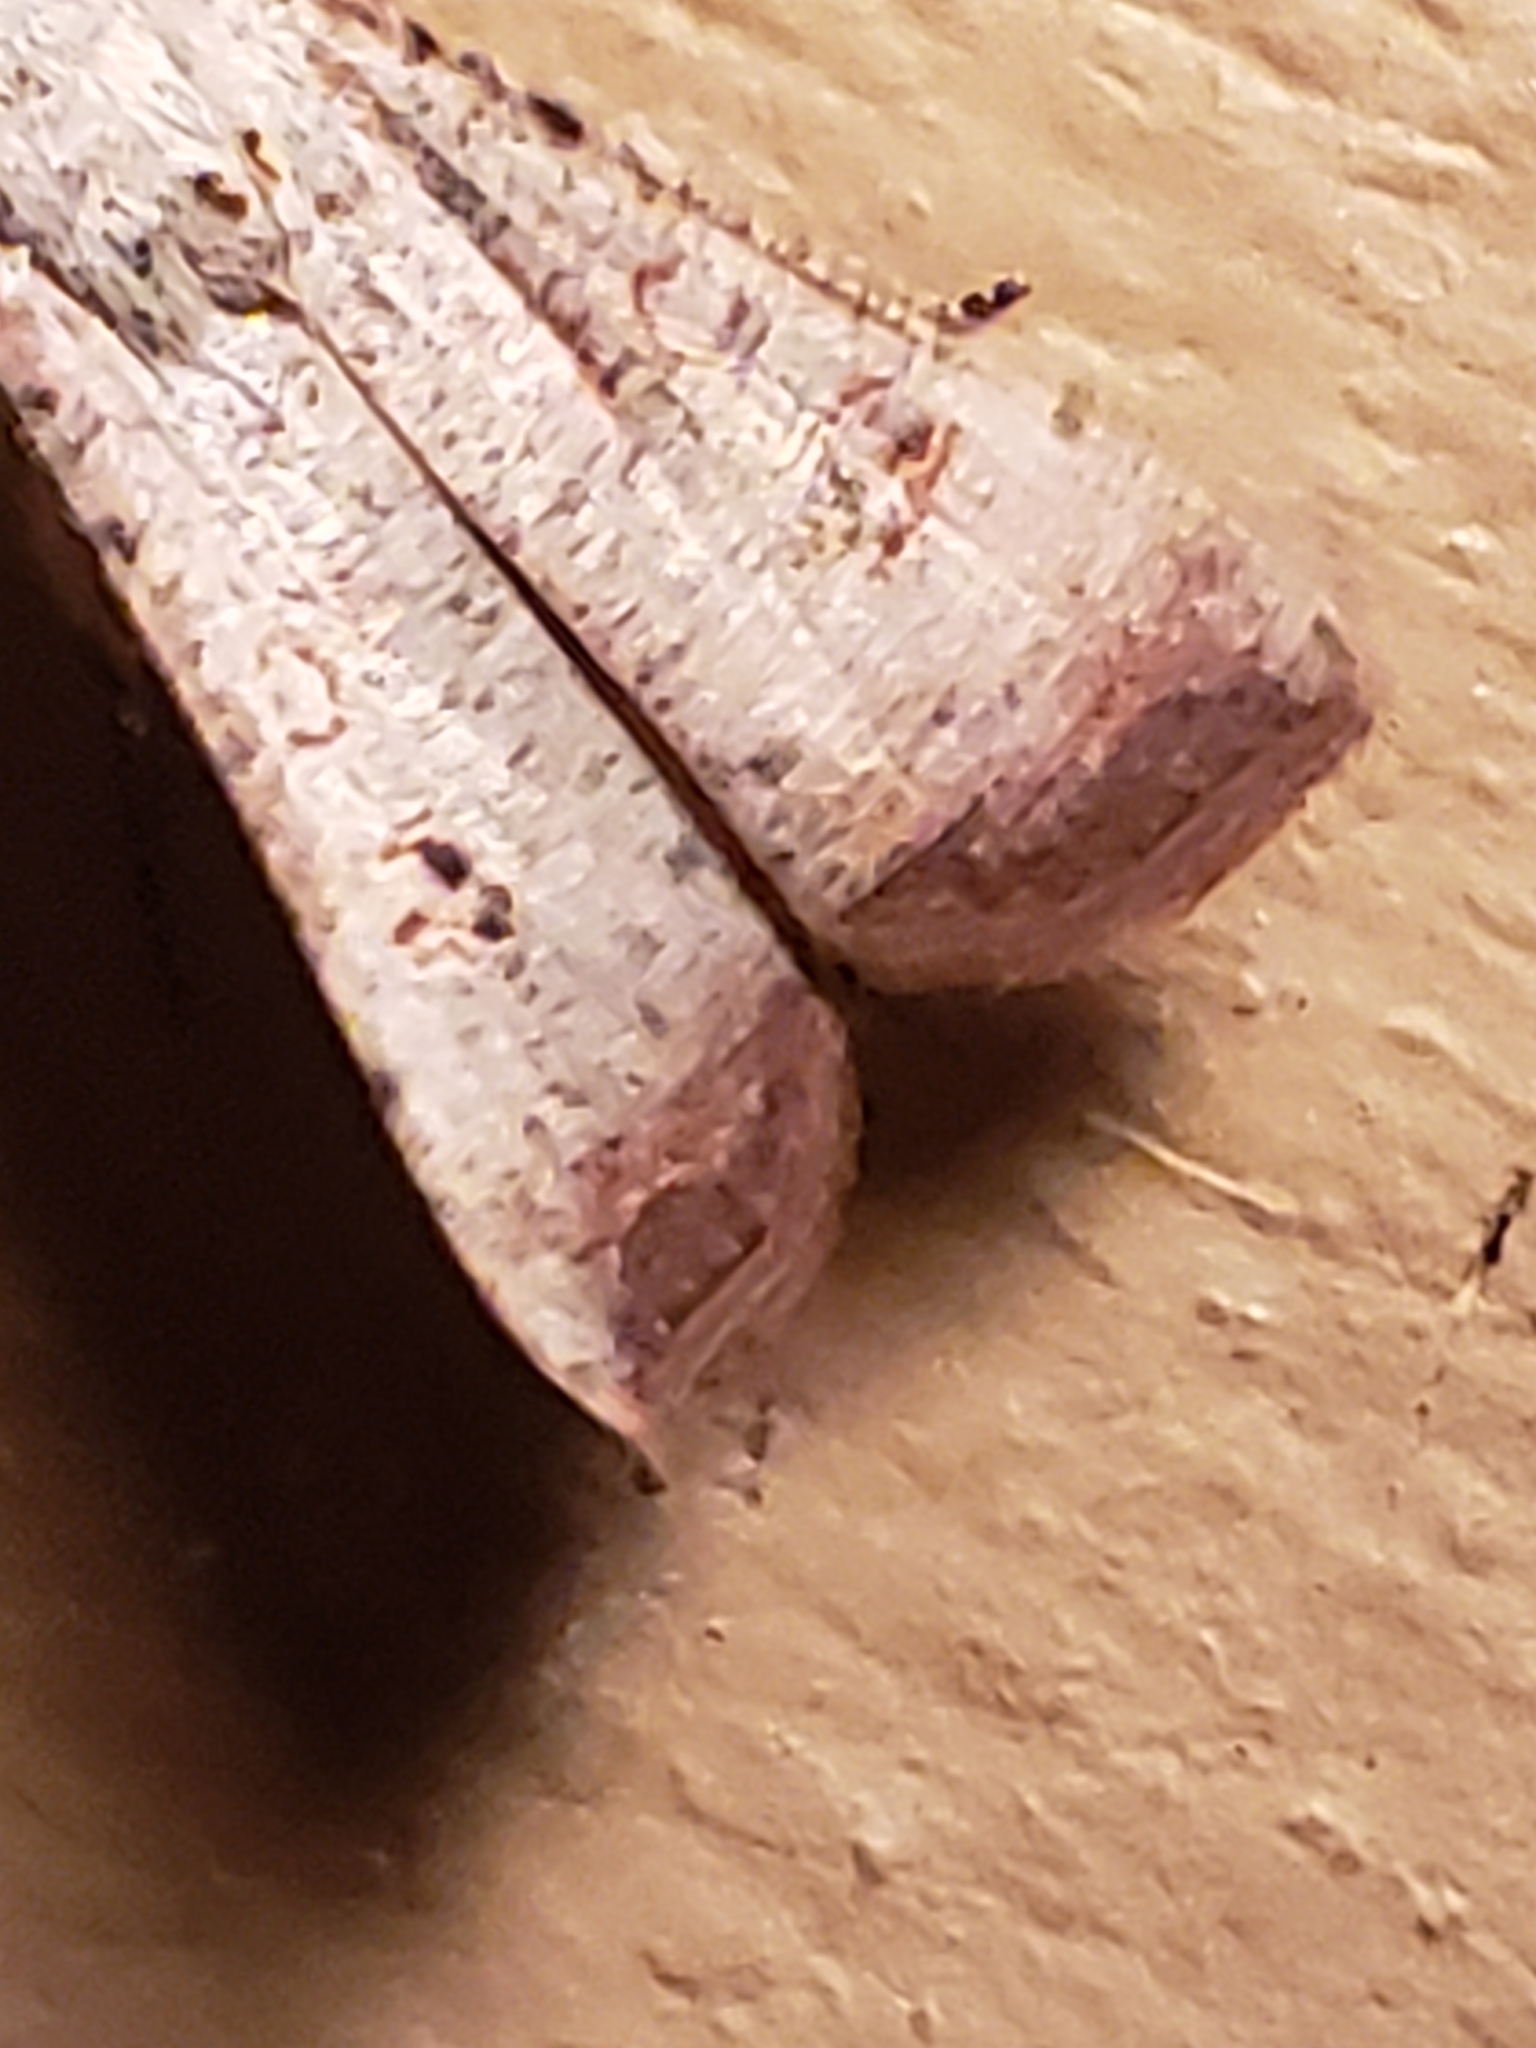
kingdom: Animalia
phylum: Arthropoda
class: Insecta
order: Lepidoptera
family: Noctuidae
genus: Anicla
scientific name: Anicla infecta
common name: Green cutworm
